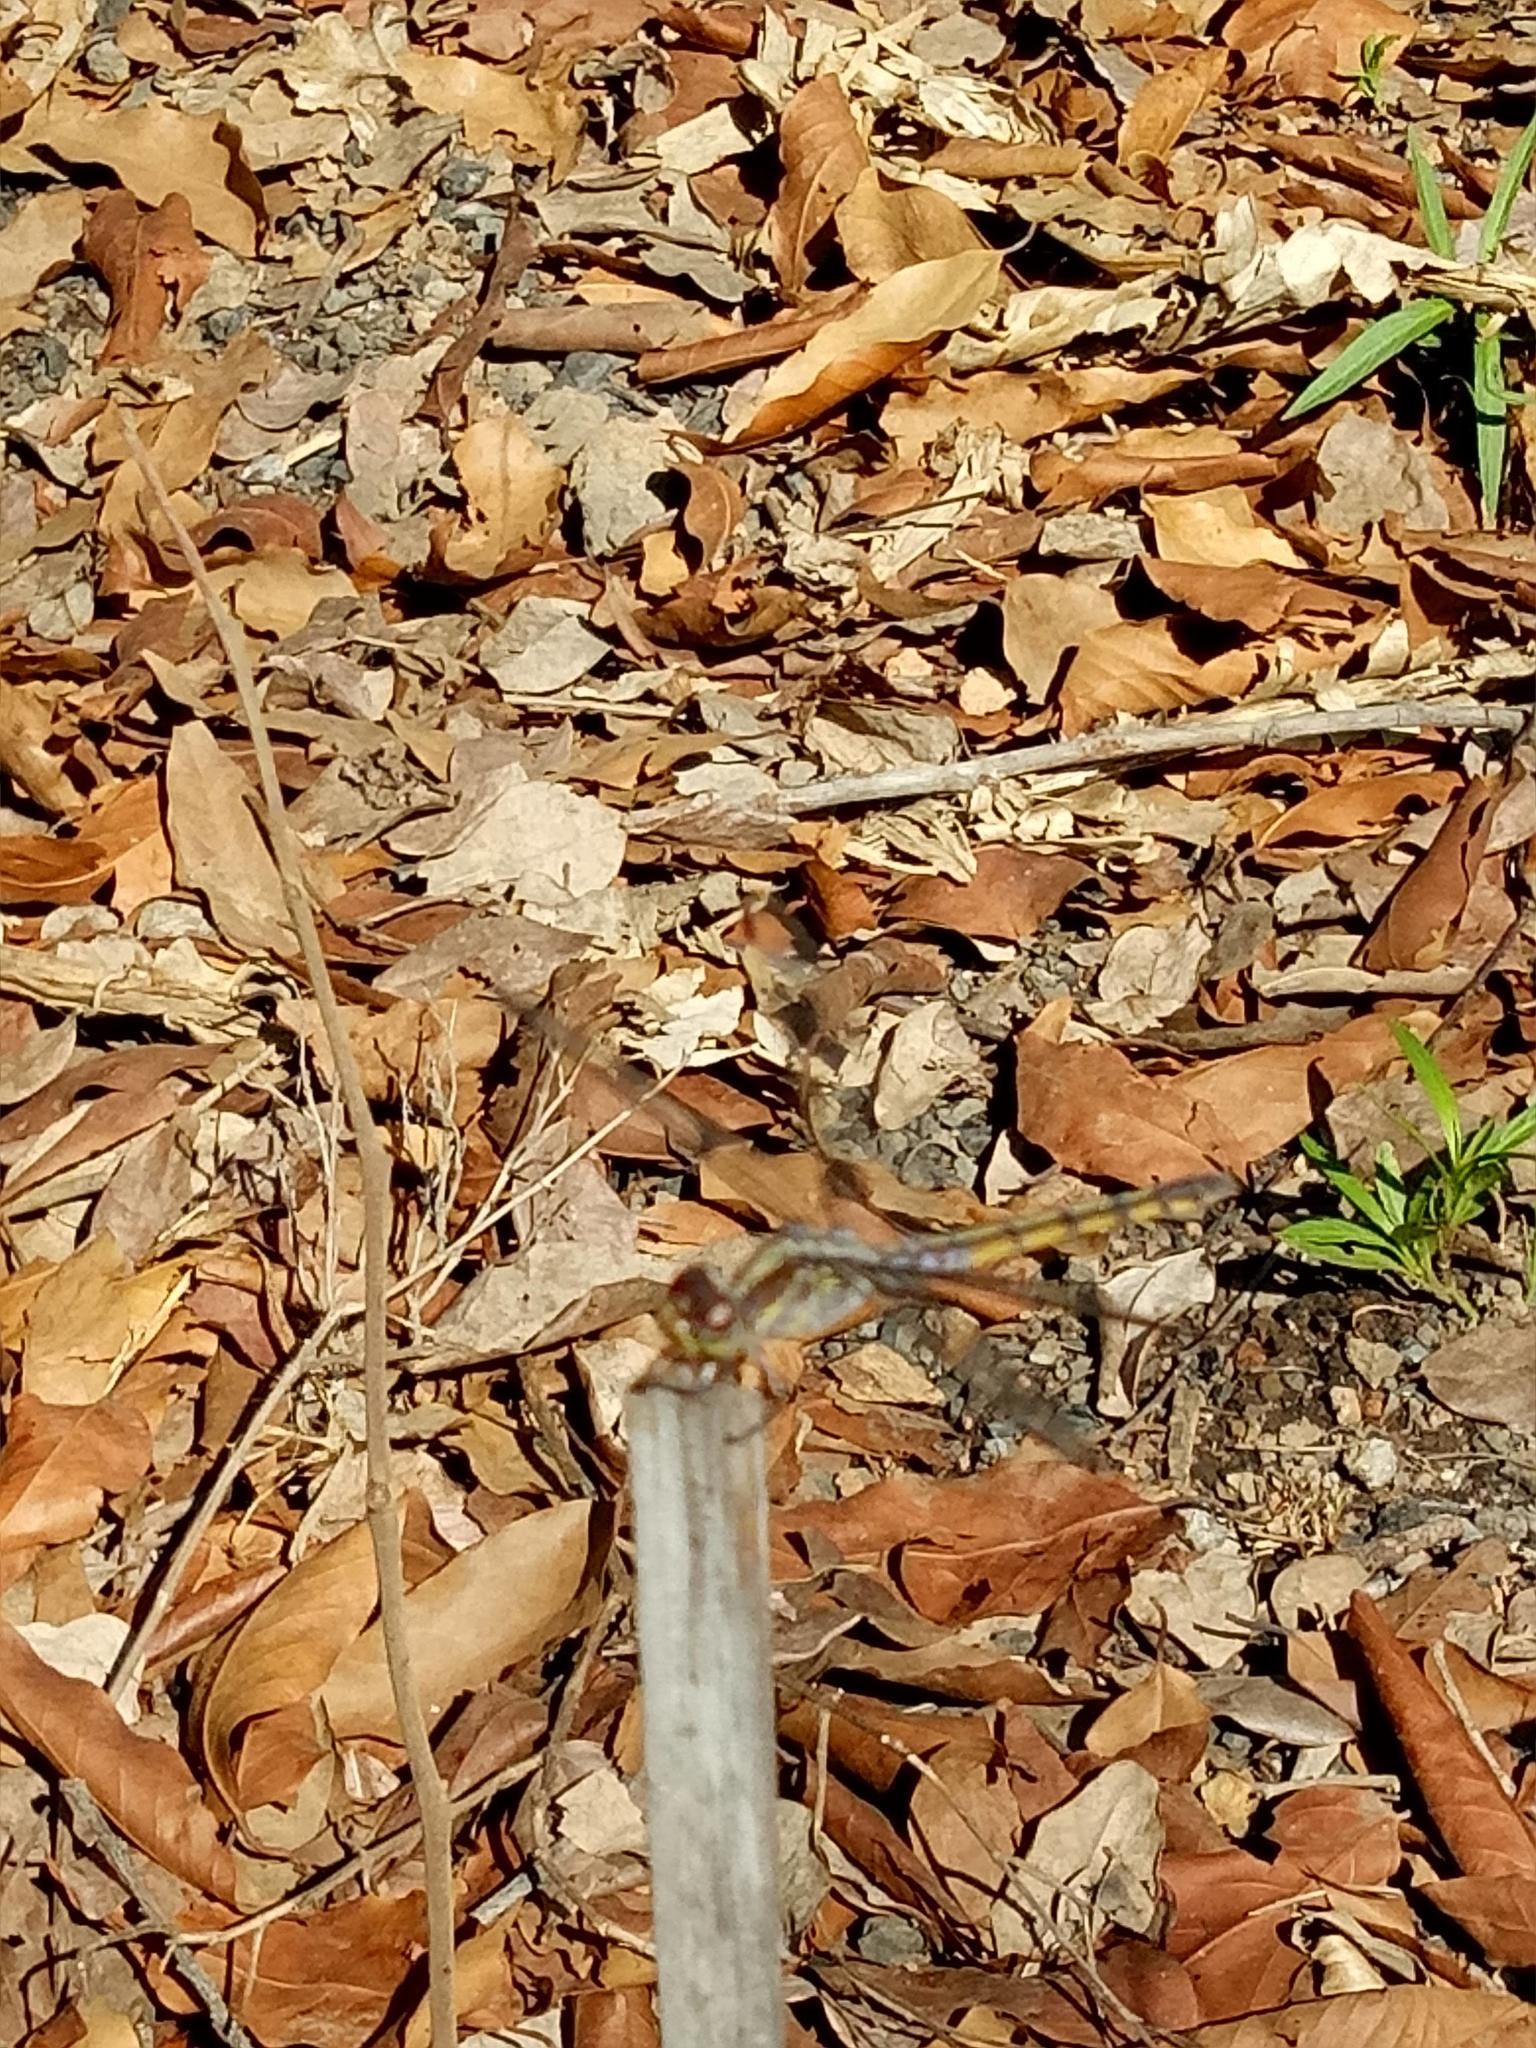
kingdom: Animalia
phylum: Arthropoda
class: Insecta
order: Odonata
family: Libellulidae
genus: Potamarcha
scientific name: Potamarcha congener
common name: Blue chaser
